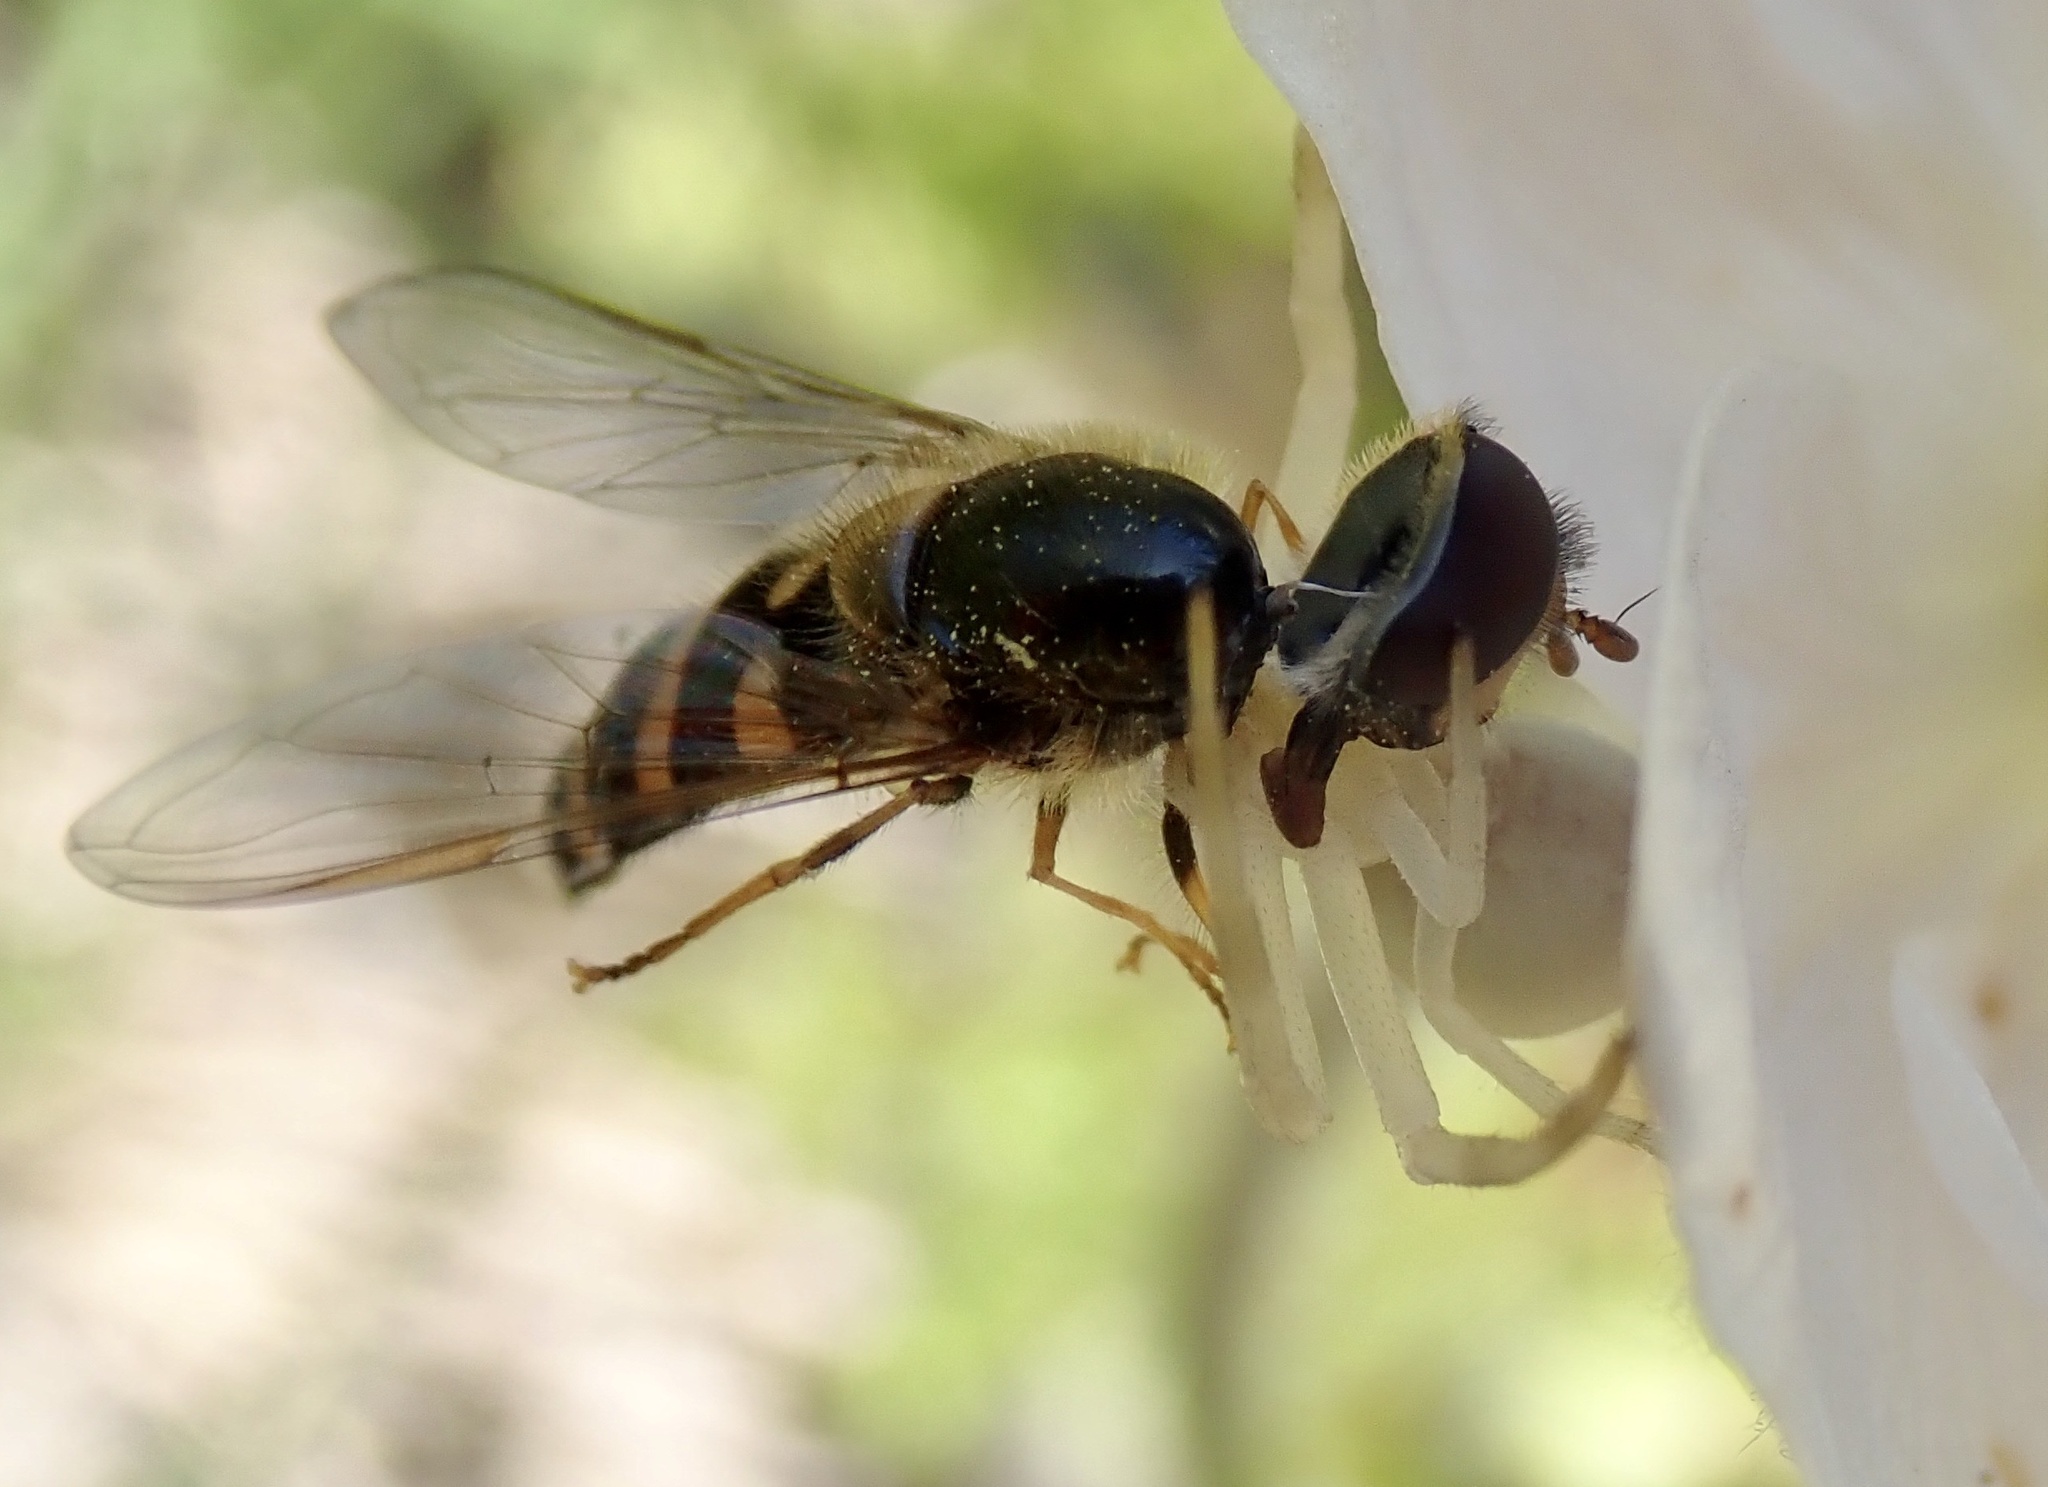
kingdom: Animalia
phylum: Arthropoda
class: Insecta
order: Diptera
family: Syrphidae
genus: Lapposyrphus
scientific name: Lapposyrphus aberrantis
